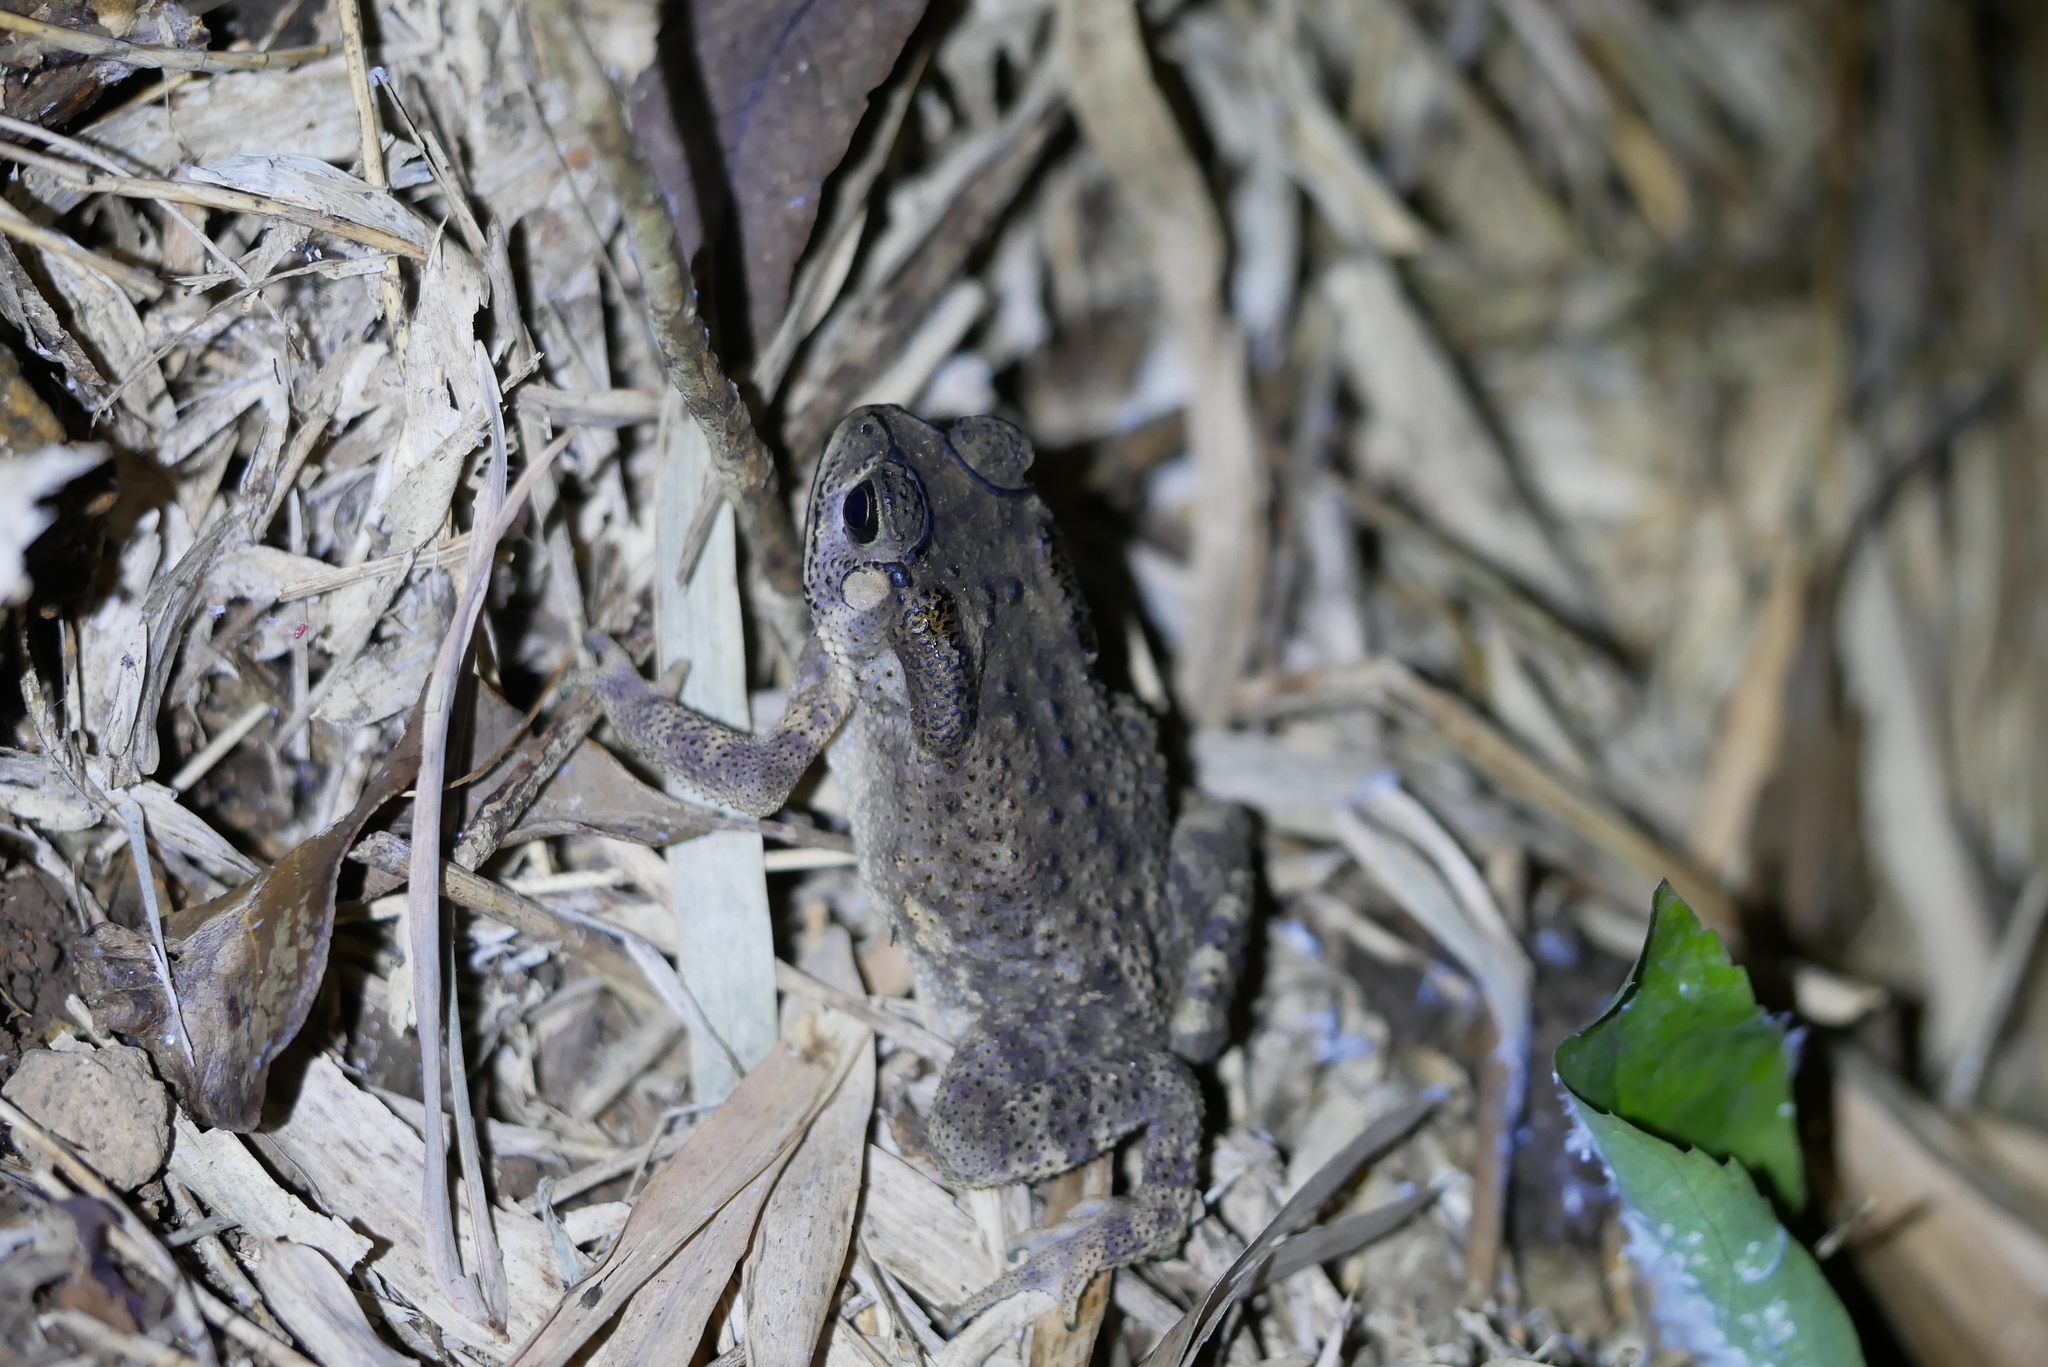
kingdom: Animalia
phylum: Chordata
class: Amphibia
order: Anura
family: Bufonidae
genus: Duttaphrynus
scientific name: Duttaphrynus melanostictus
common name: Common sunda toad
